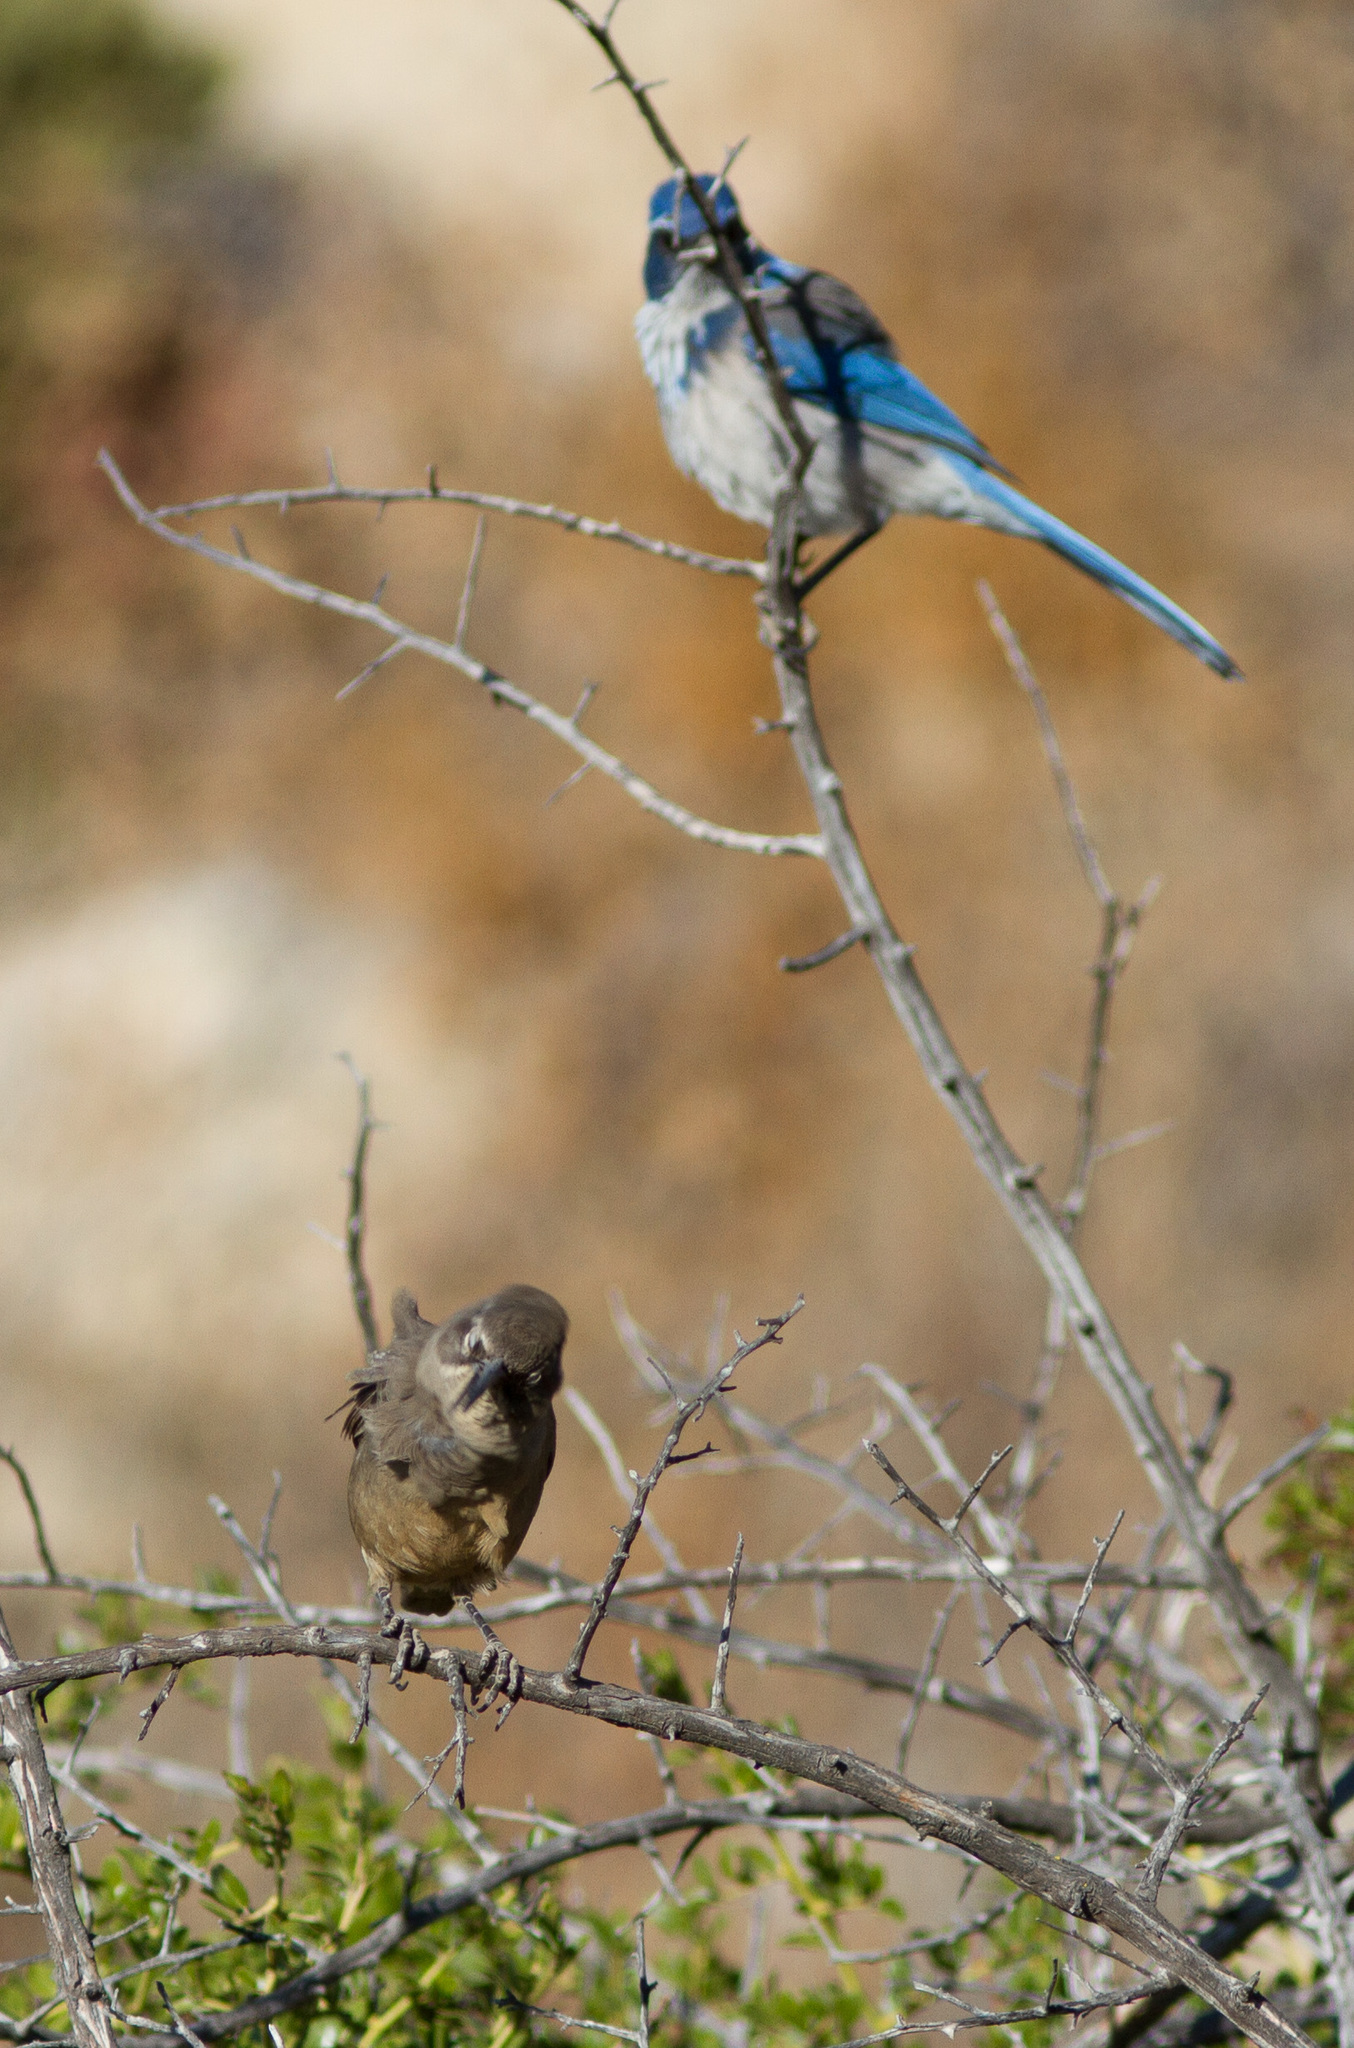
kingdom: Animalia
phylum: Chordata
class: Aves
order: Passeriformes
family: Corvidae
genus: Aphelocoma
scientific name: Aphelocoma californica
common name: California scrub-jay
